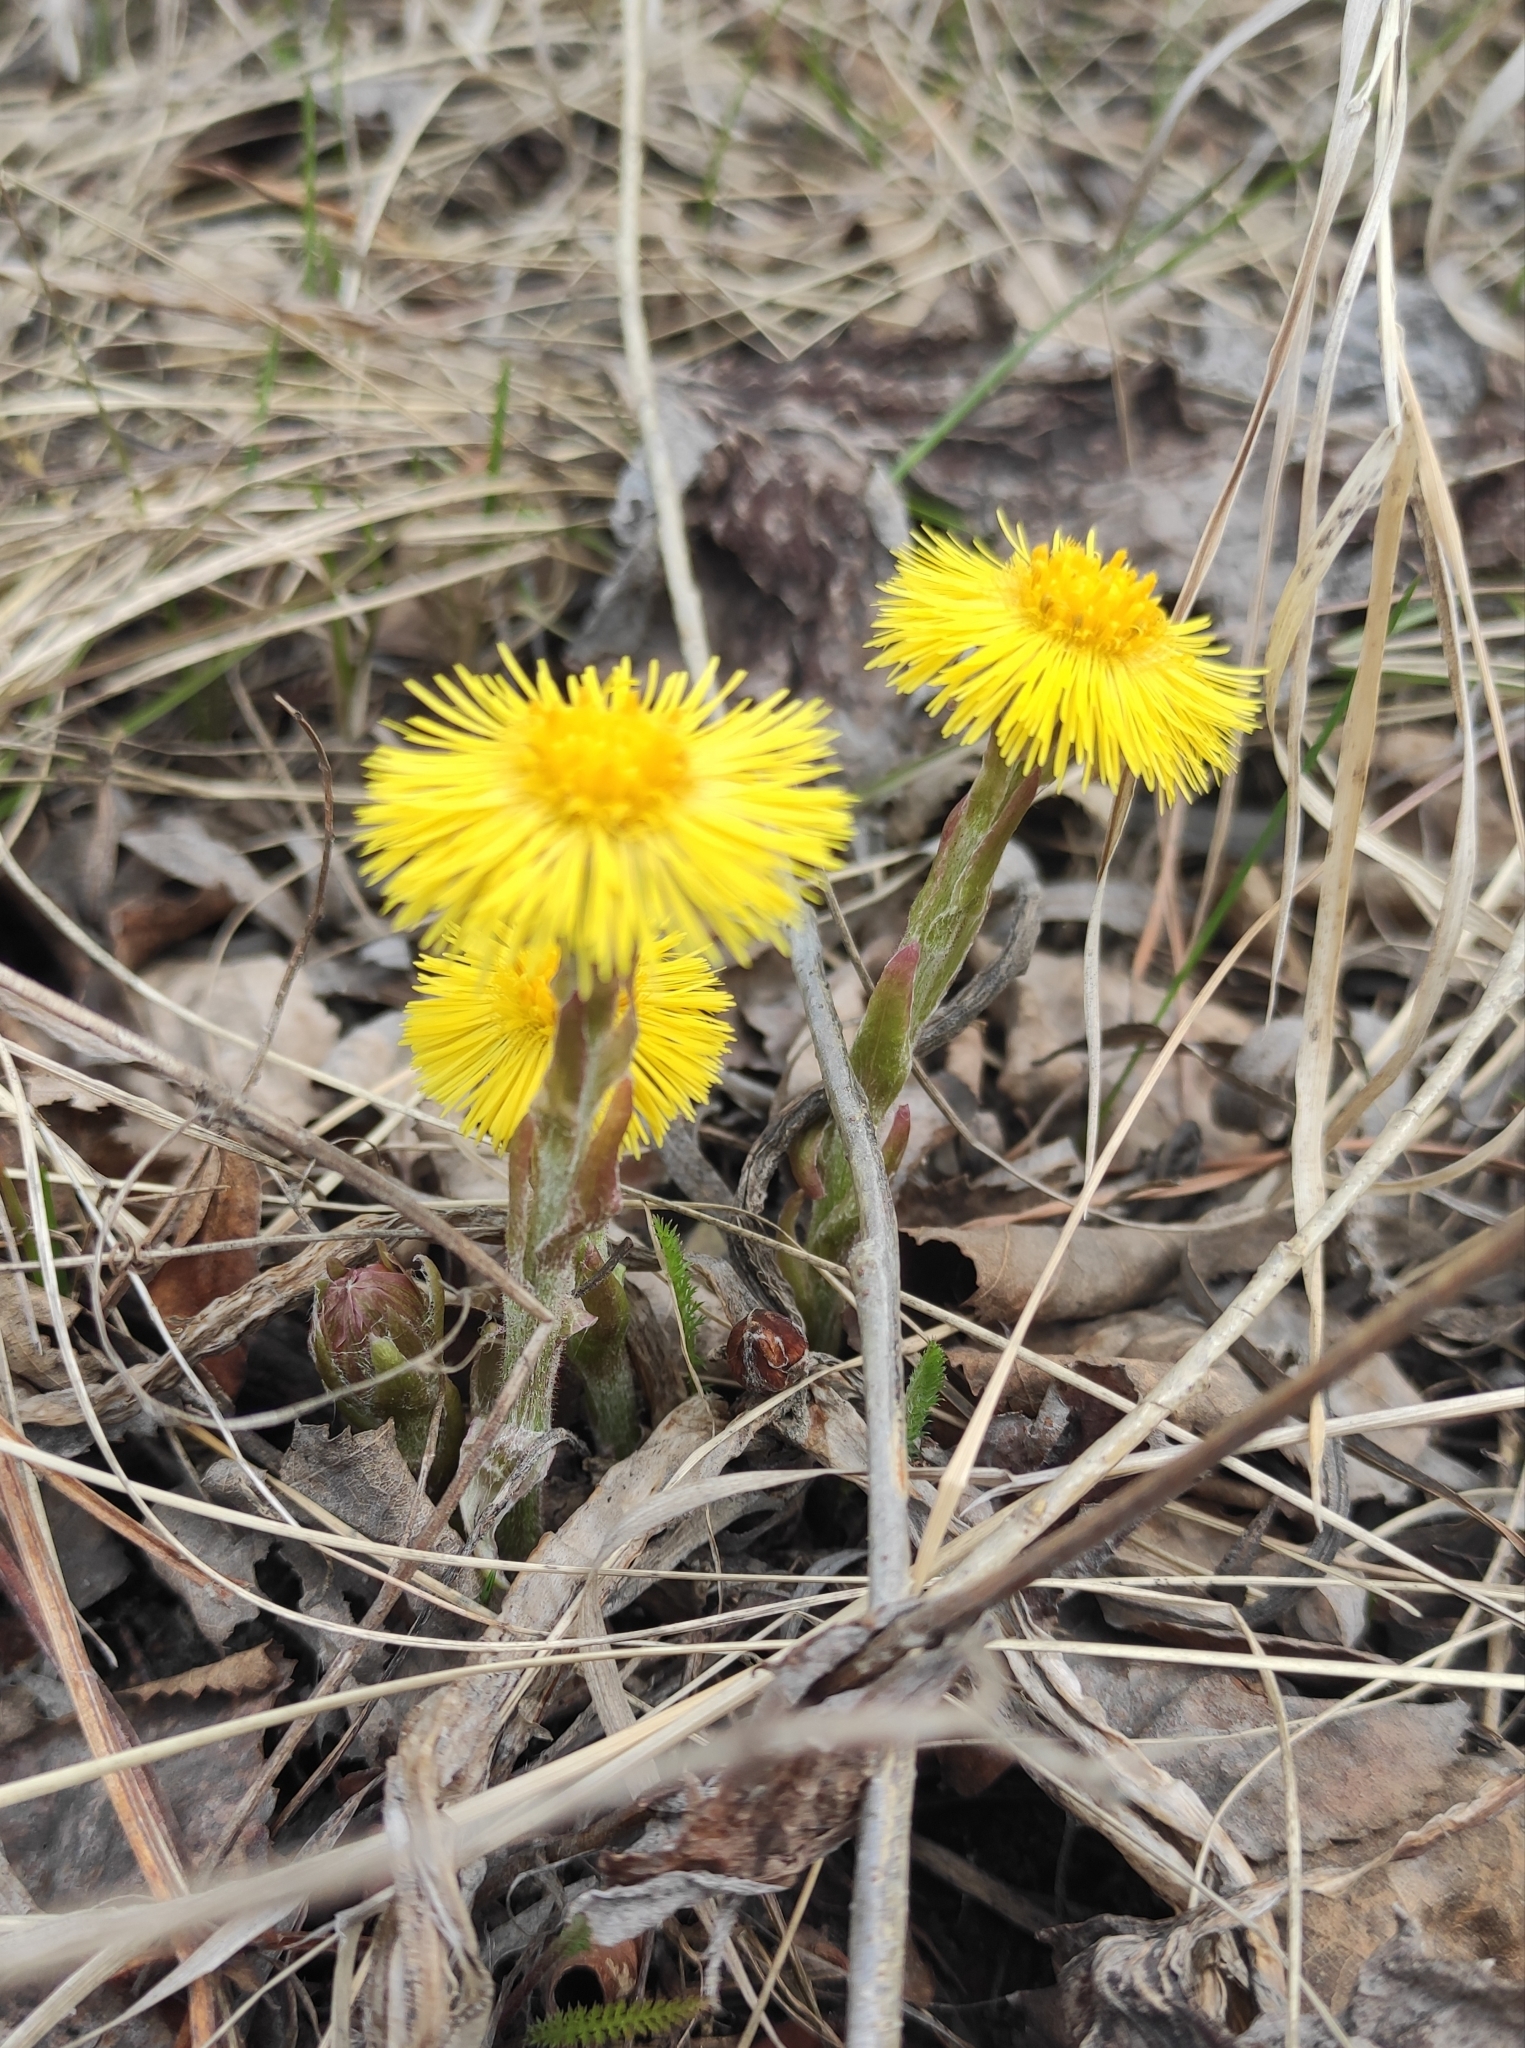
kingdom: Plantae
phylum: Tracheophyta
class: Magnoliopsida
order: Asterales
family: Asteraceae
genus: Tussilago
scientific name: Tussilago farfara
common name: Coltsfoot
